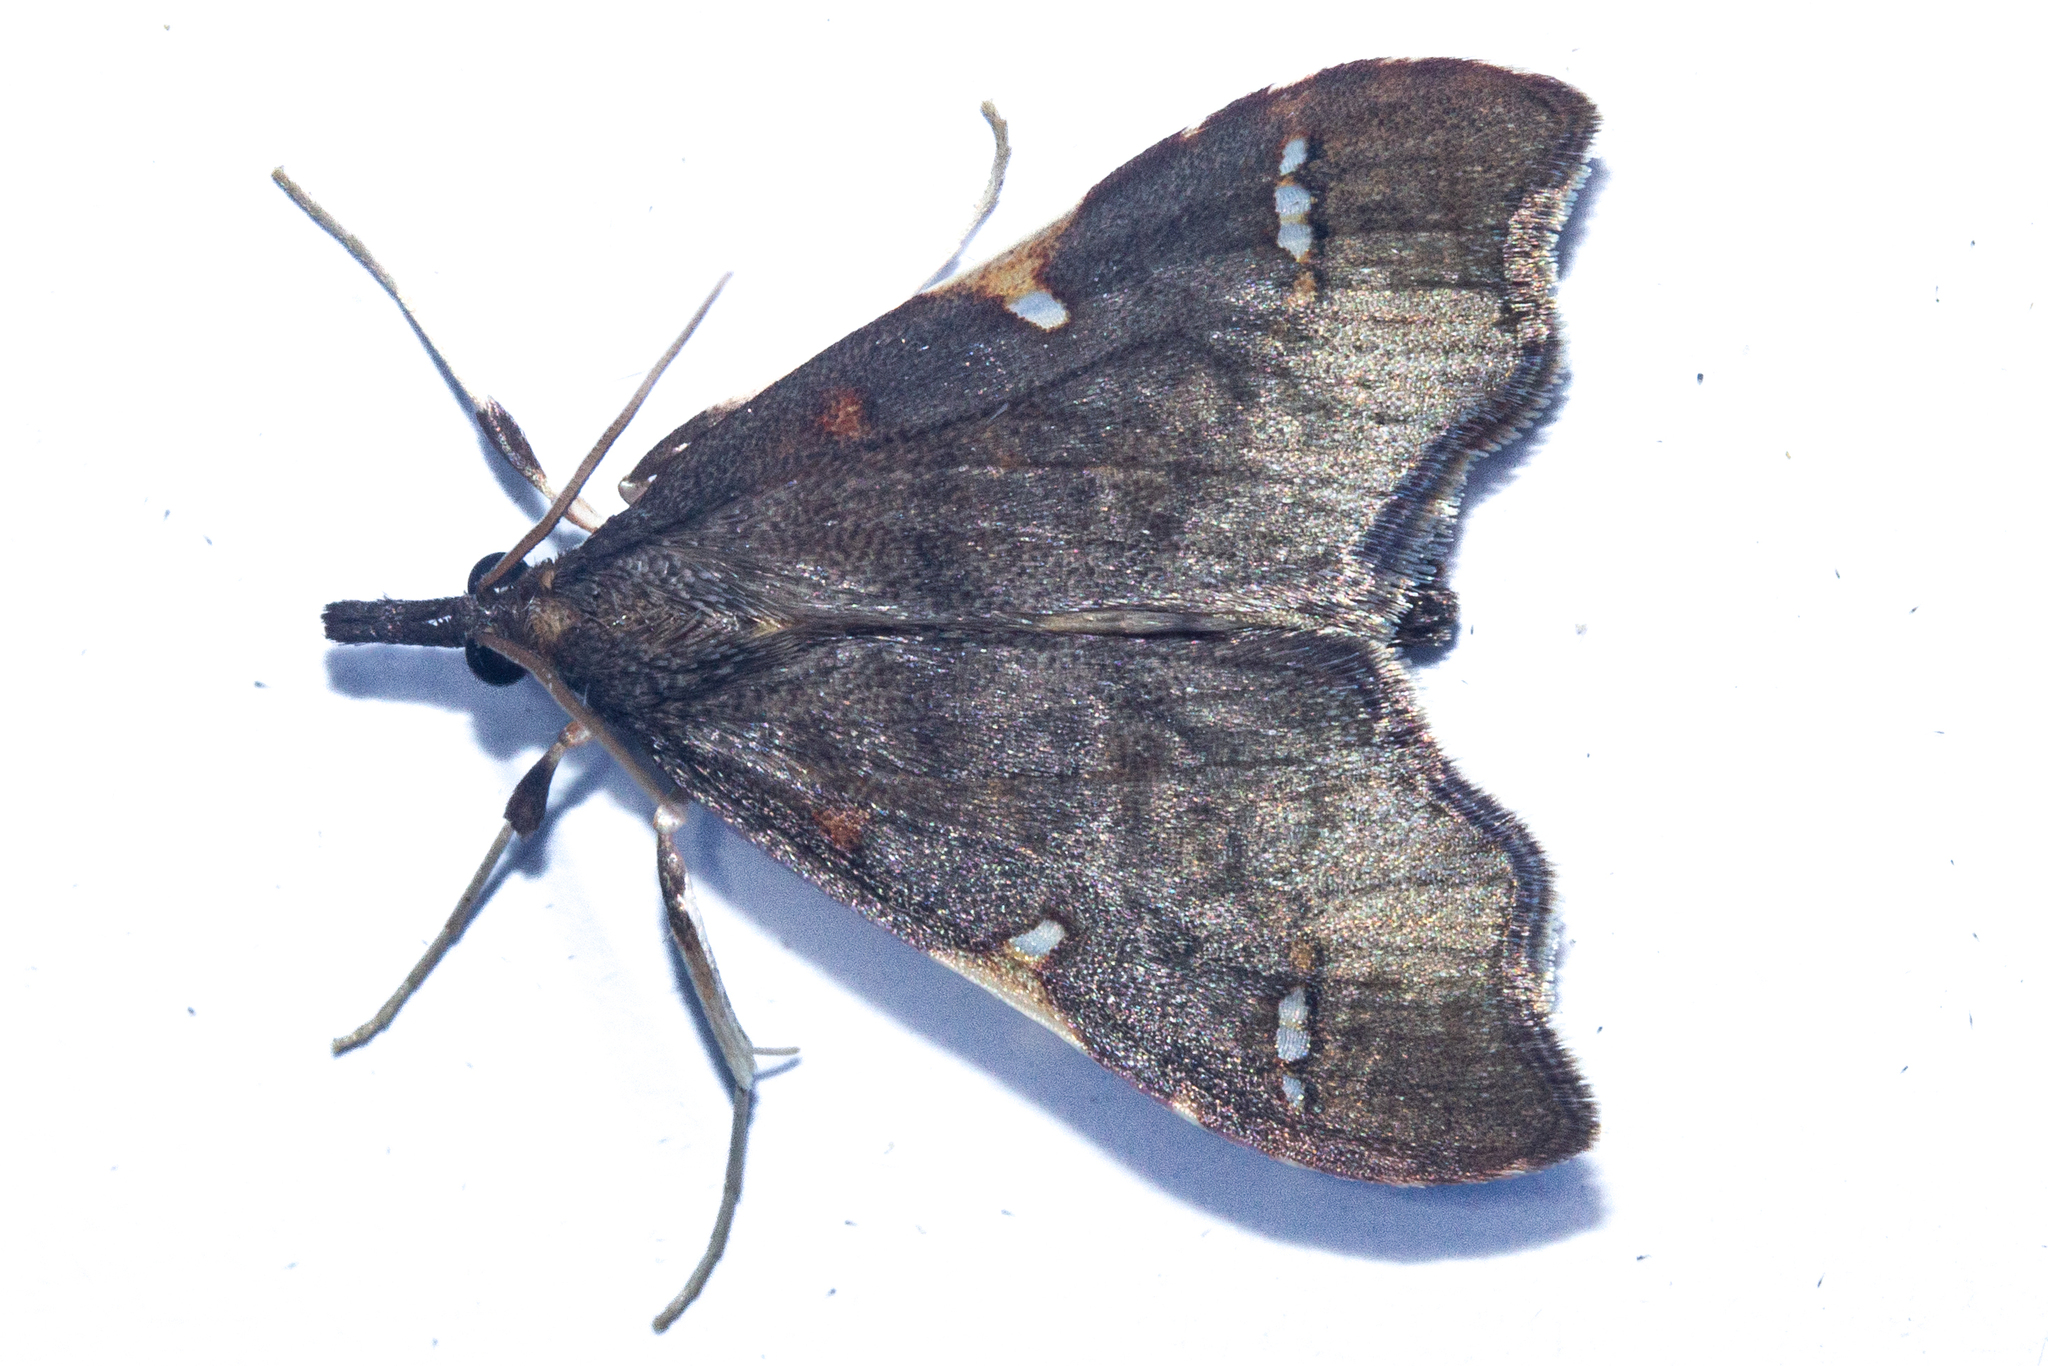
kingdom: Animalia
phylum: Arthropoda
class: Insecta
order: Lepidoptera
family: Crambidae
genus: Deana
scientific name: Deana hybreasalis
